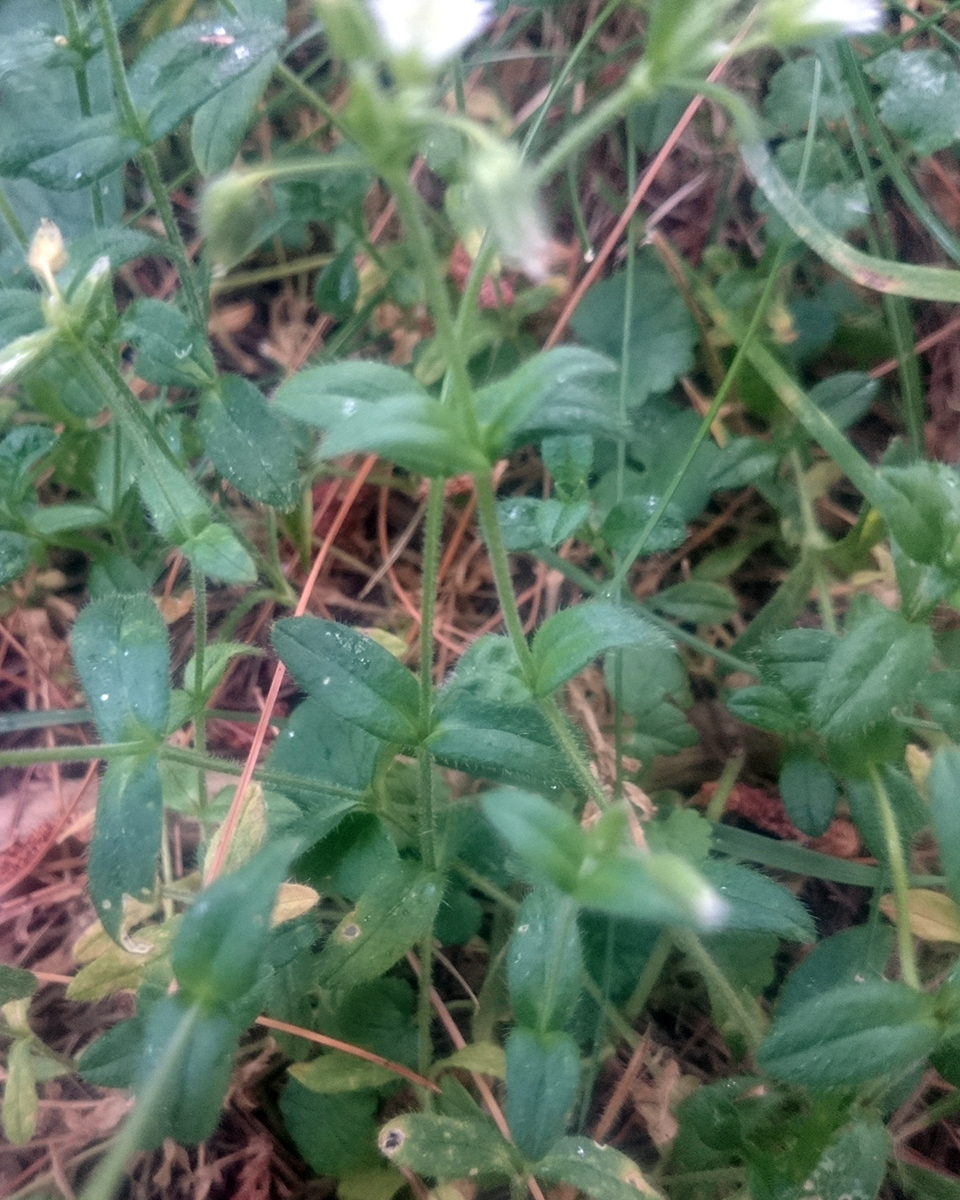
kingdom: Plantae
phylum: Tracheophyta
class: Magnoliopsida
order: Caryophyllales
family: Caryophyllaceae
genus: Cerastium
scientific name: Cerastium fontanum
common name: Common mouse-ear
